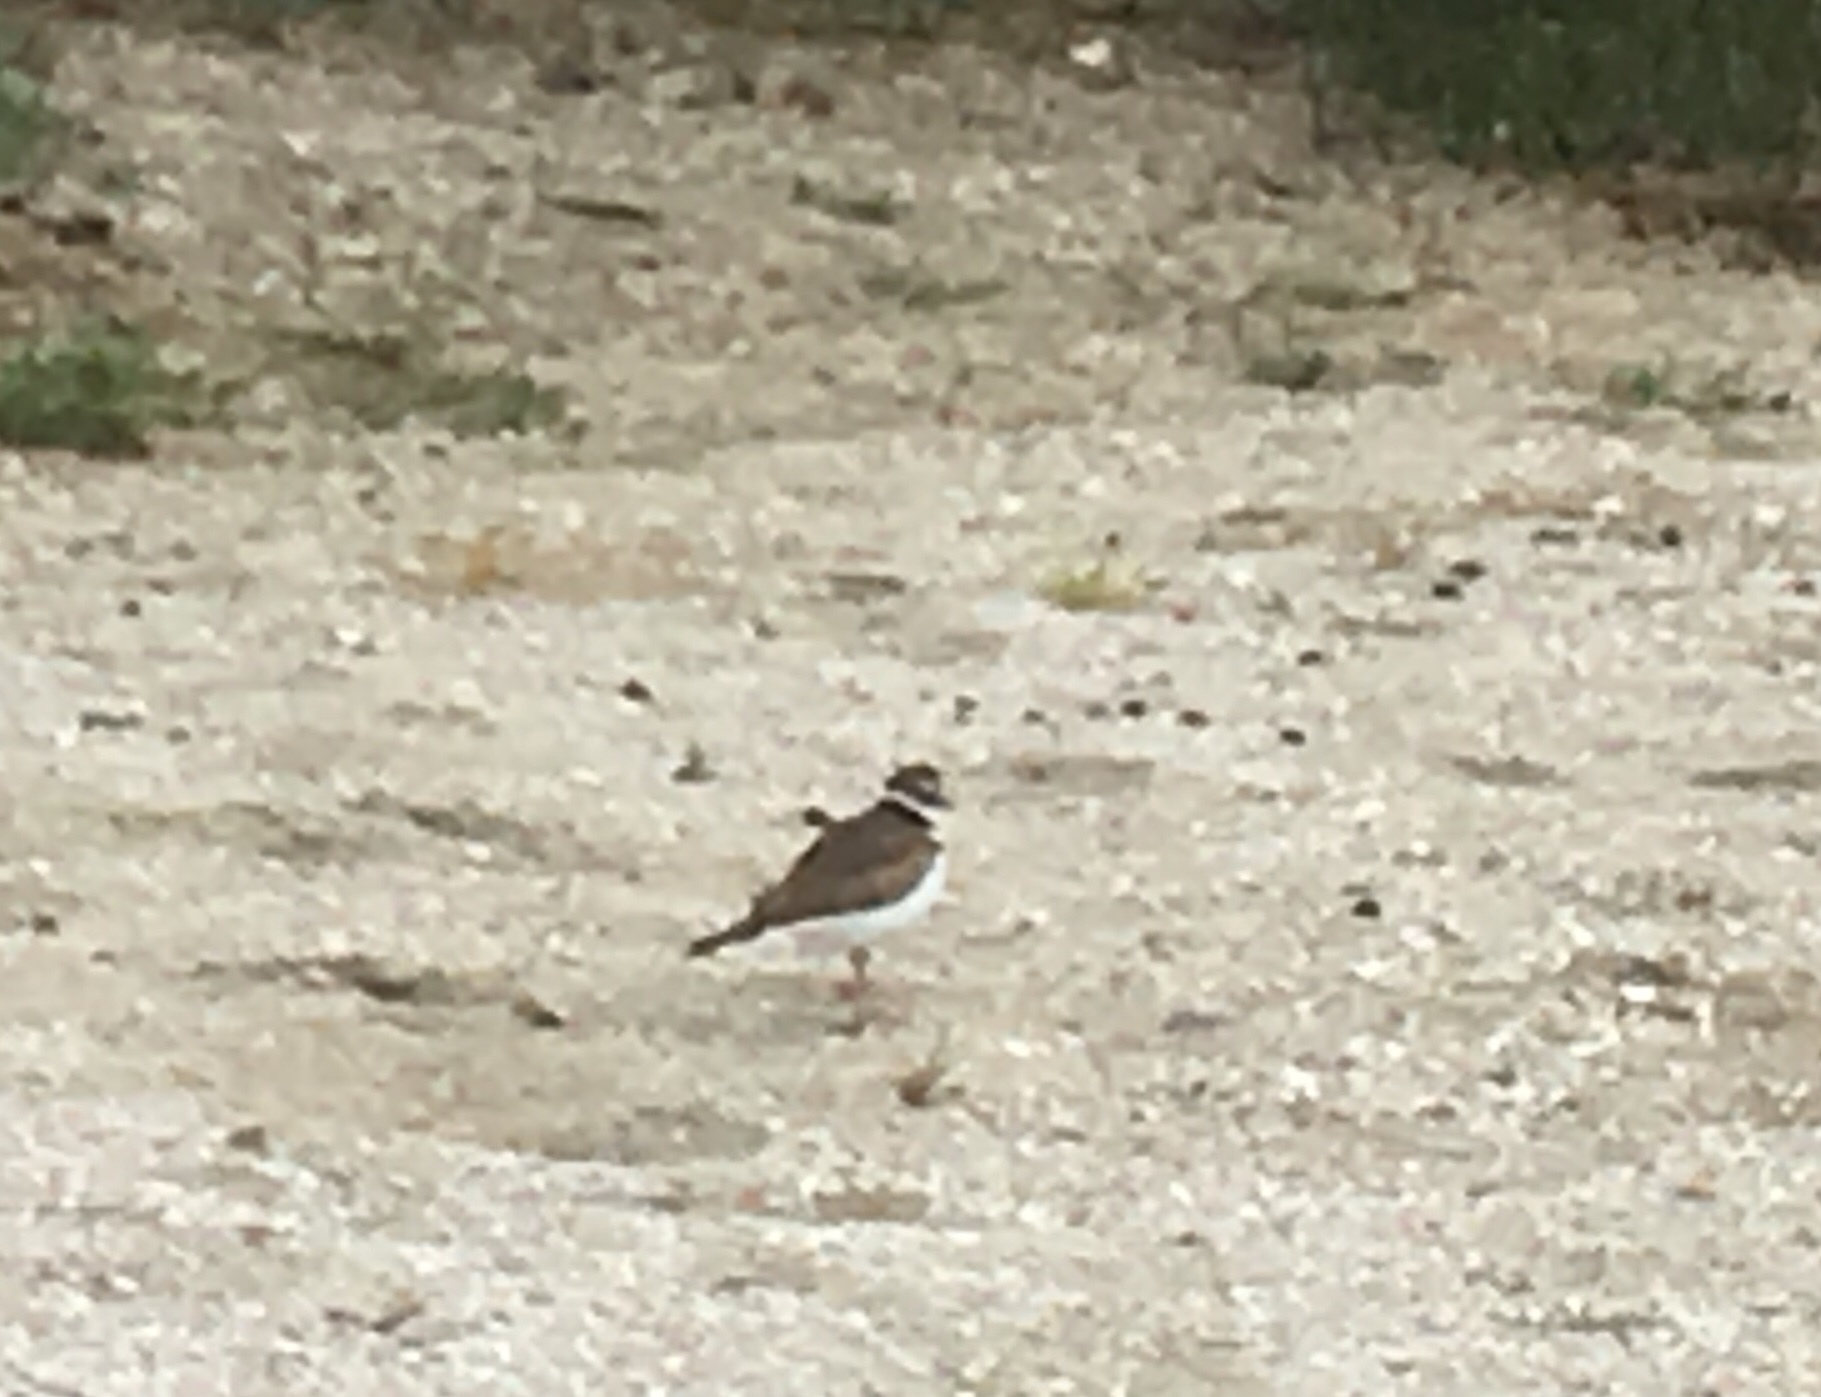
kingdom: Animalia
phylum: Chordata
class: Aves
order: Charadriiformes
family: Charadriidae
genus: Charadrius
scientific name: Charadrius vociferus
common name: Killdeer
